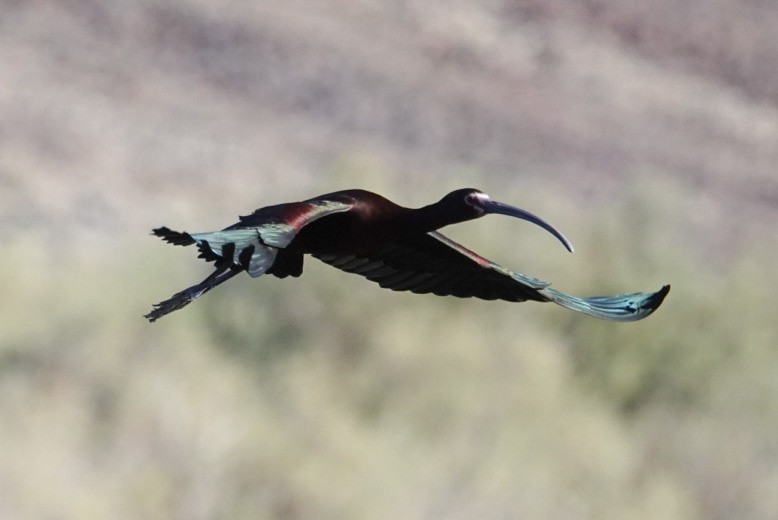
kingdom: Animalia
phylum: Chordata
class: Aves
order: Pelecaniformes
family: Threskiornithidae
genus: Plegadis
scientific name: Plegadis chihi
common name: White-faced ibis
